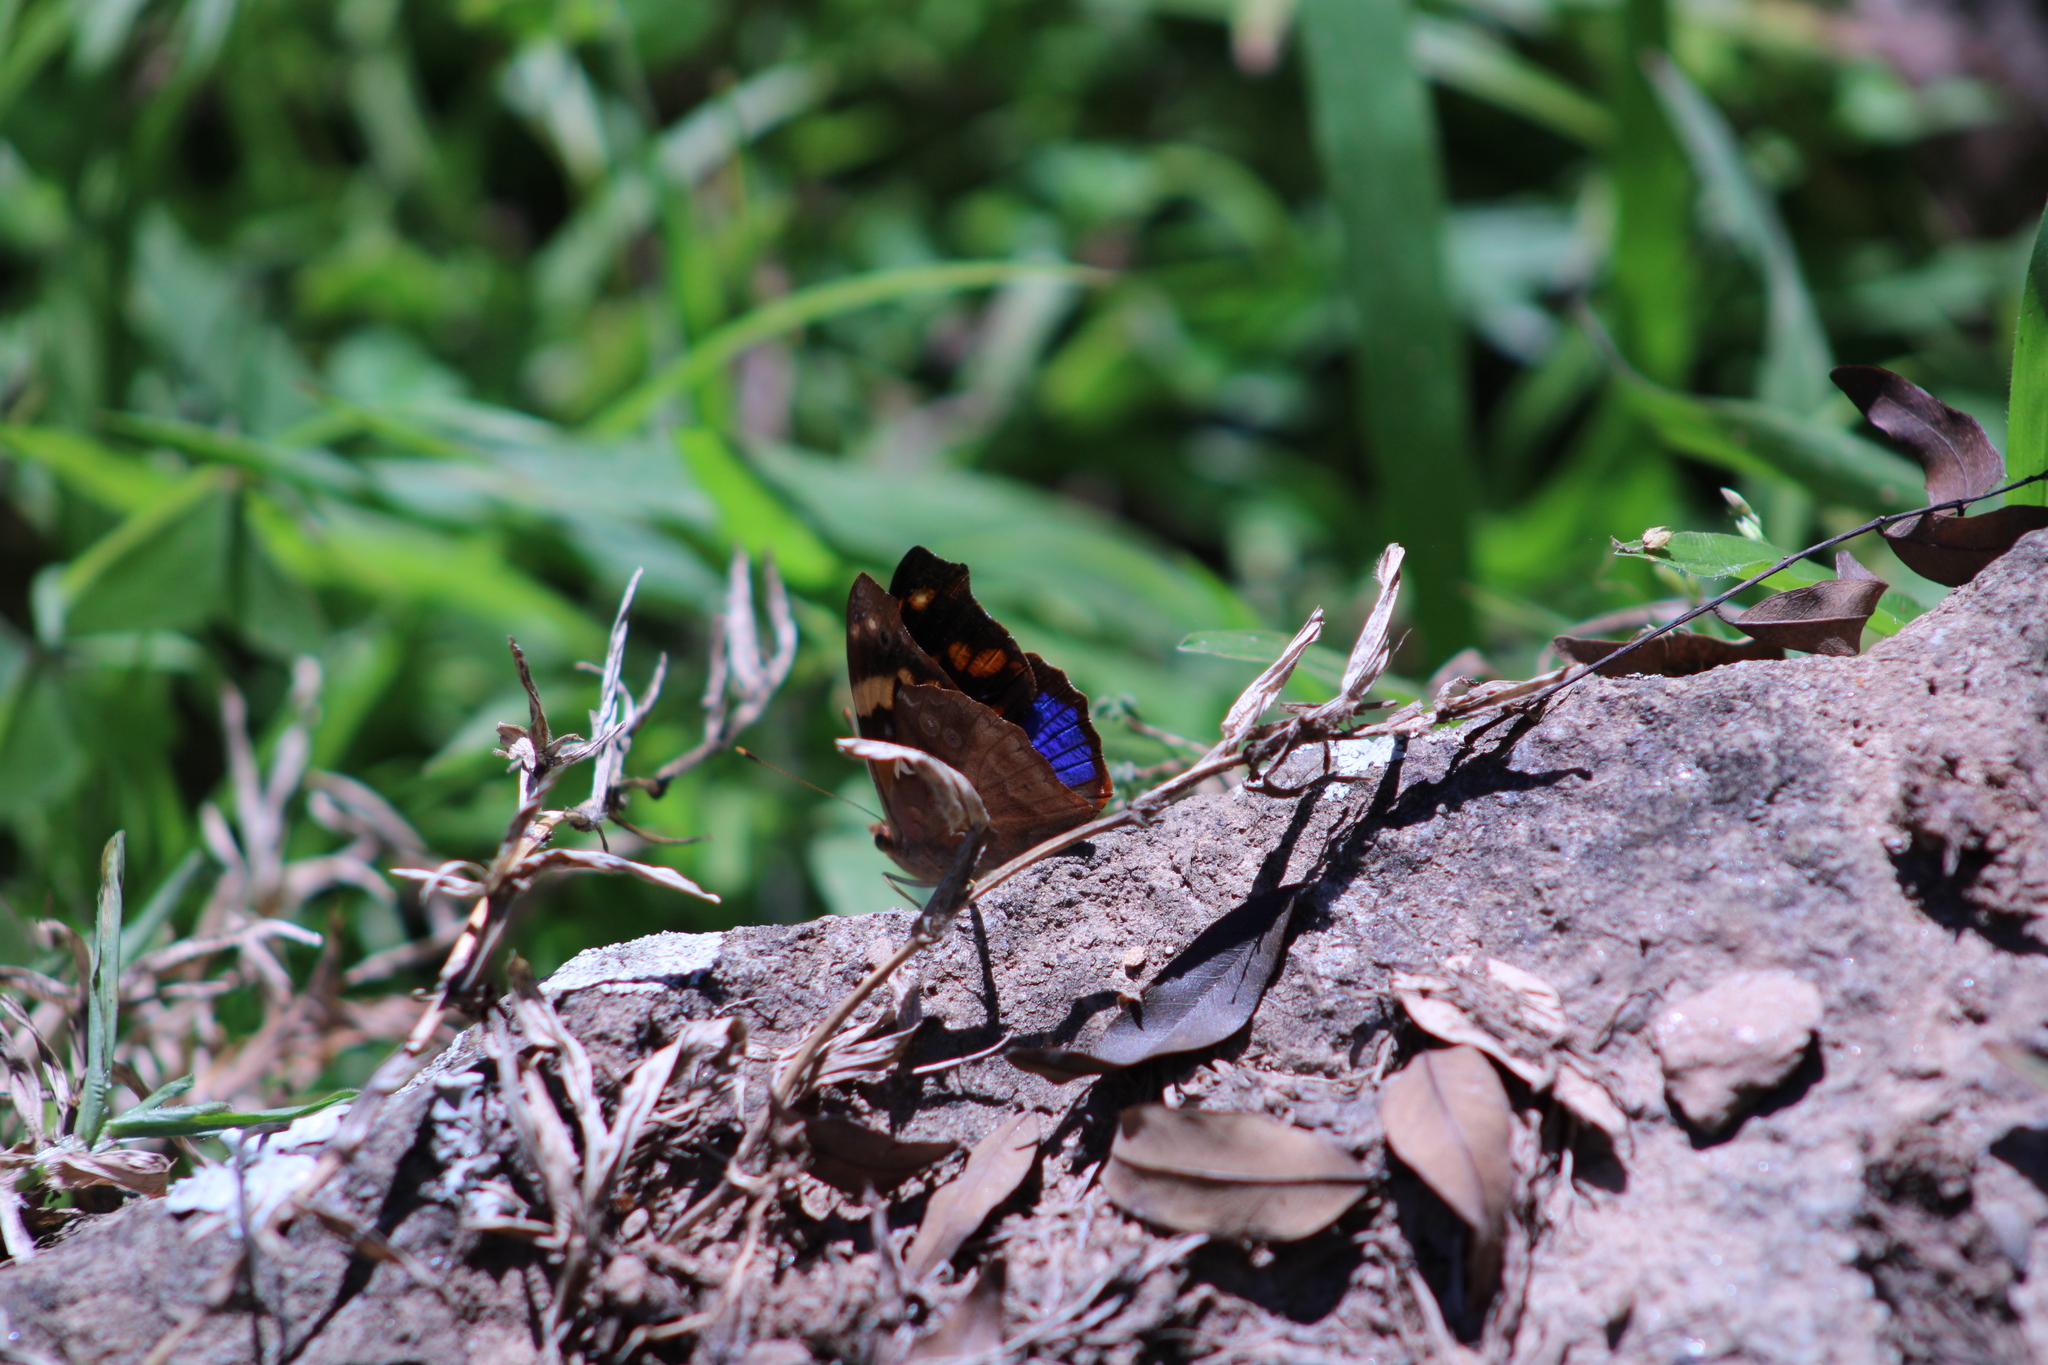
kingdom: Animalia
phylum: Arthropoda
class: Insecta
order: Lepidoptera
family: Nymphalidae
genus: Epiphile
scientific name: Epiphile orea
